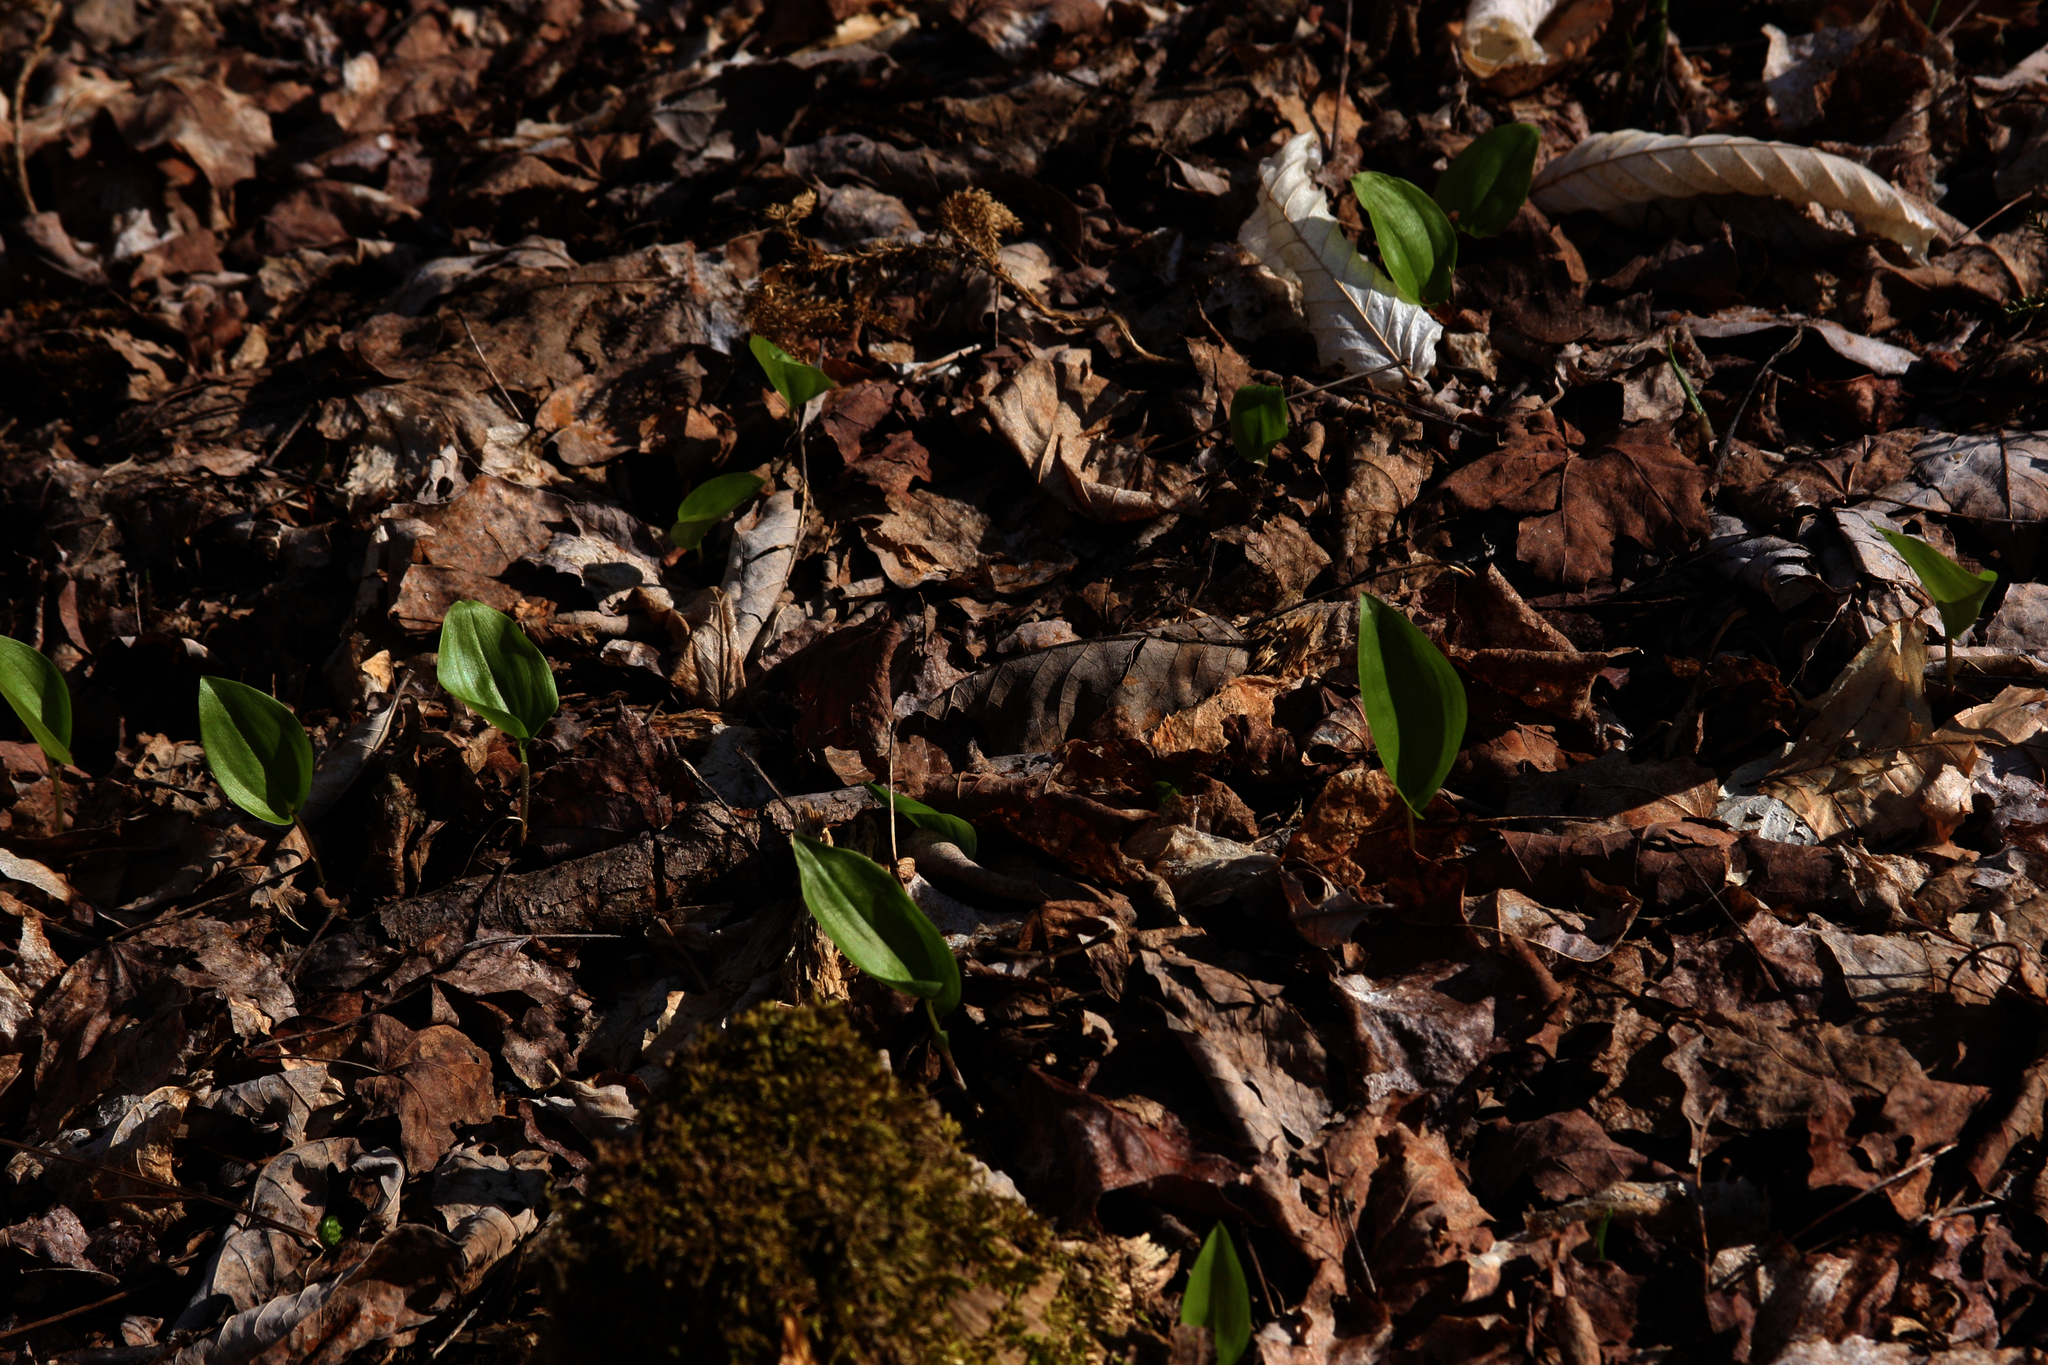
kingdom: Plantae
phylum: Tracheophyta
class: Liliopsida
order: Asparagales
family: Asparagaceae
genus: Maianthemum
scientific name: Maianthemum canadense
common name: False lily-of-the-valley
